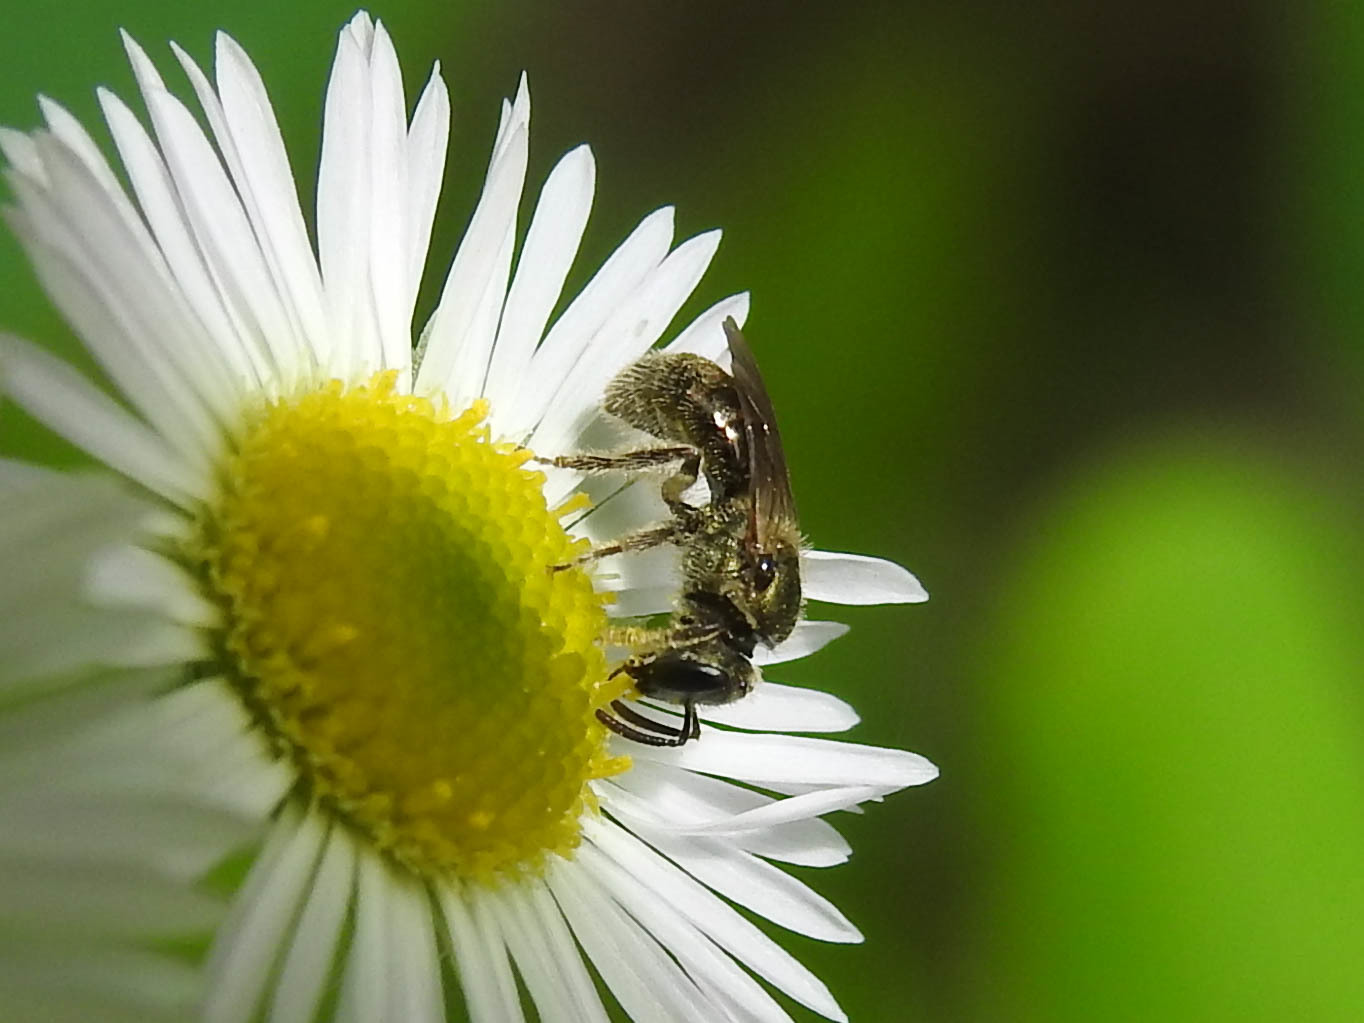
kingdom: Animalia
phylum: Arthropoda
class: Insecta
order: Hymenoptera
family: Halictidae
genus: Dialictus
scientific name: Dialictus
